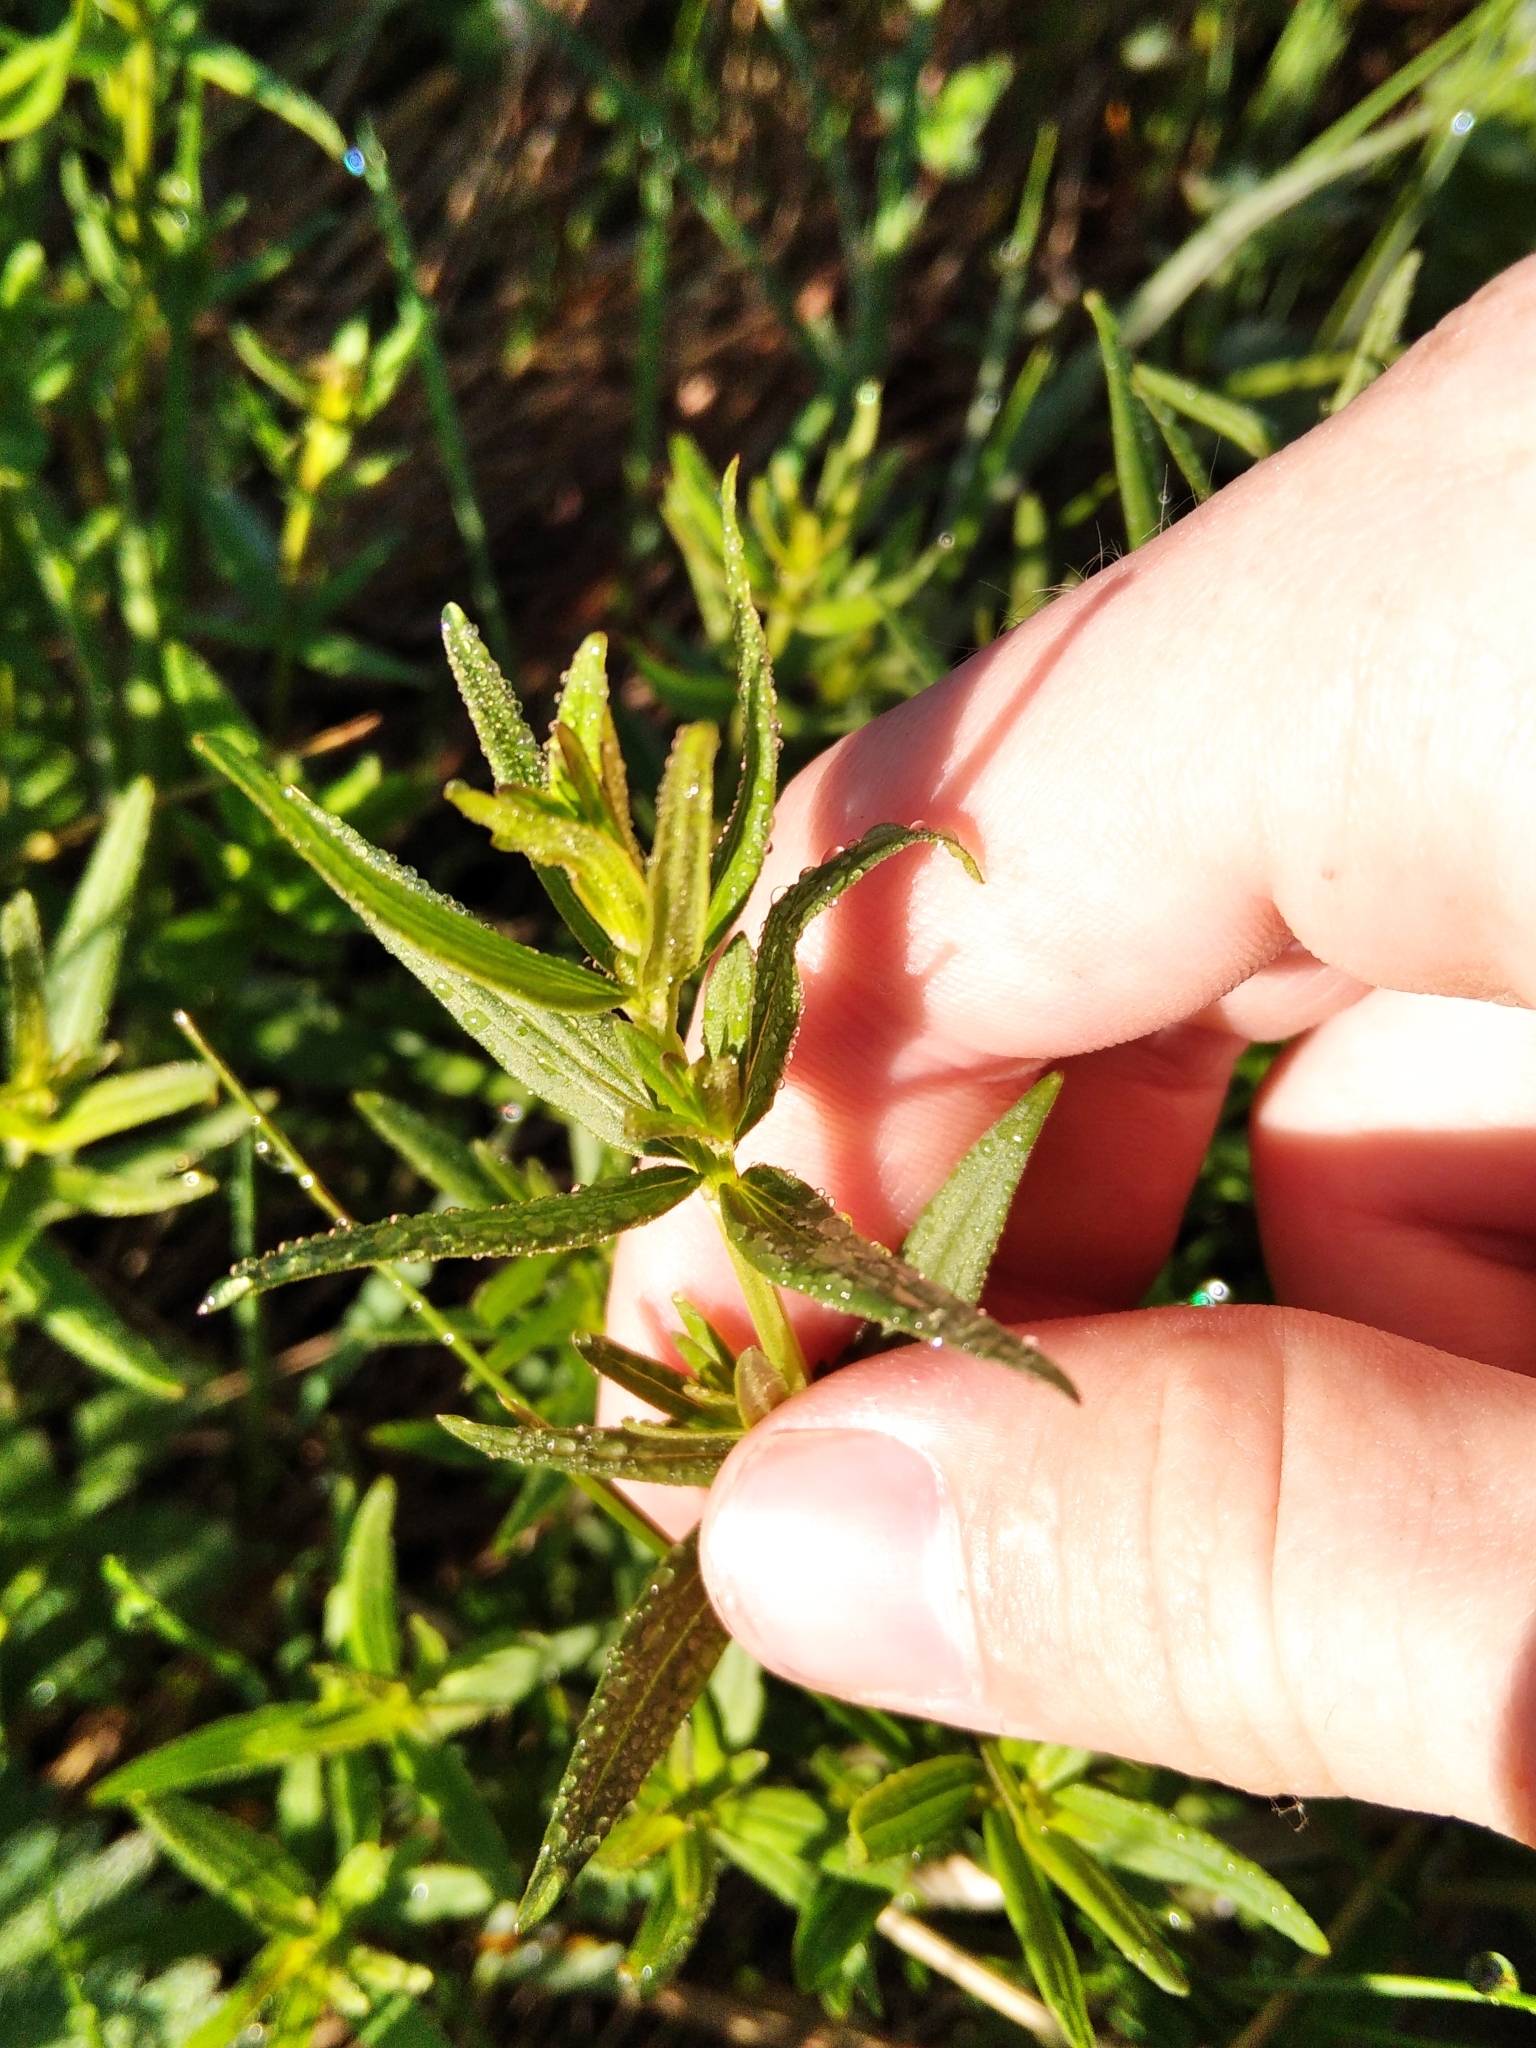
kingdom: Plantae
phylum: Tracheophyta
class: Magnoliopsida
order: Gentianales
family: Rubiaceae
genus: Galium
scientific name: Galium boreale
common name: Northern bedstraw
